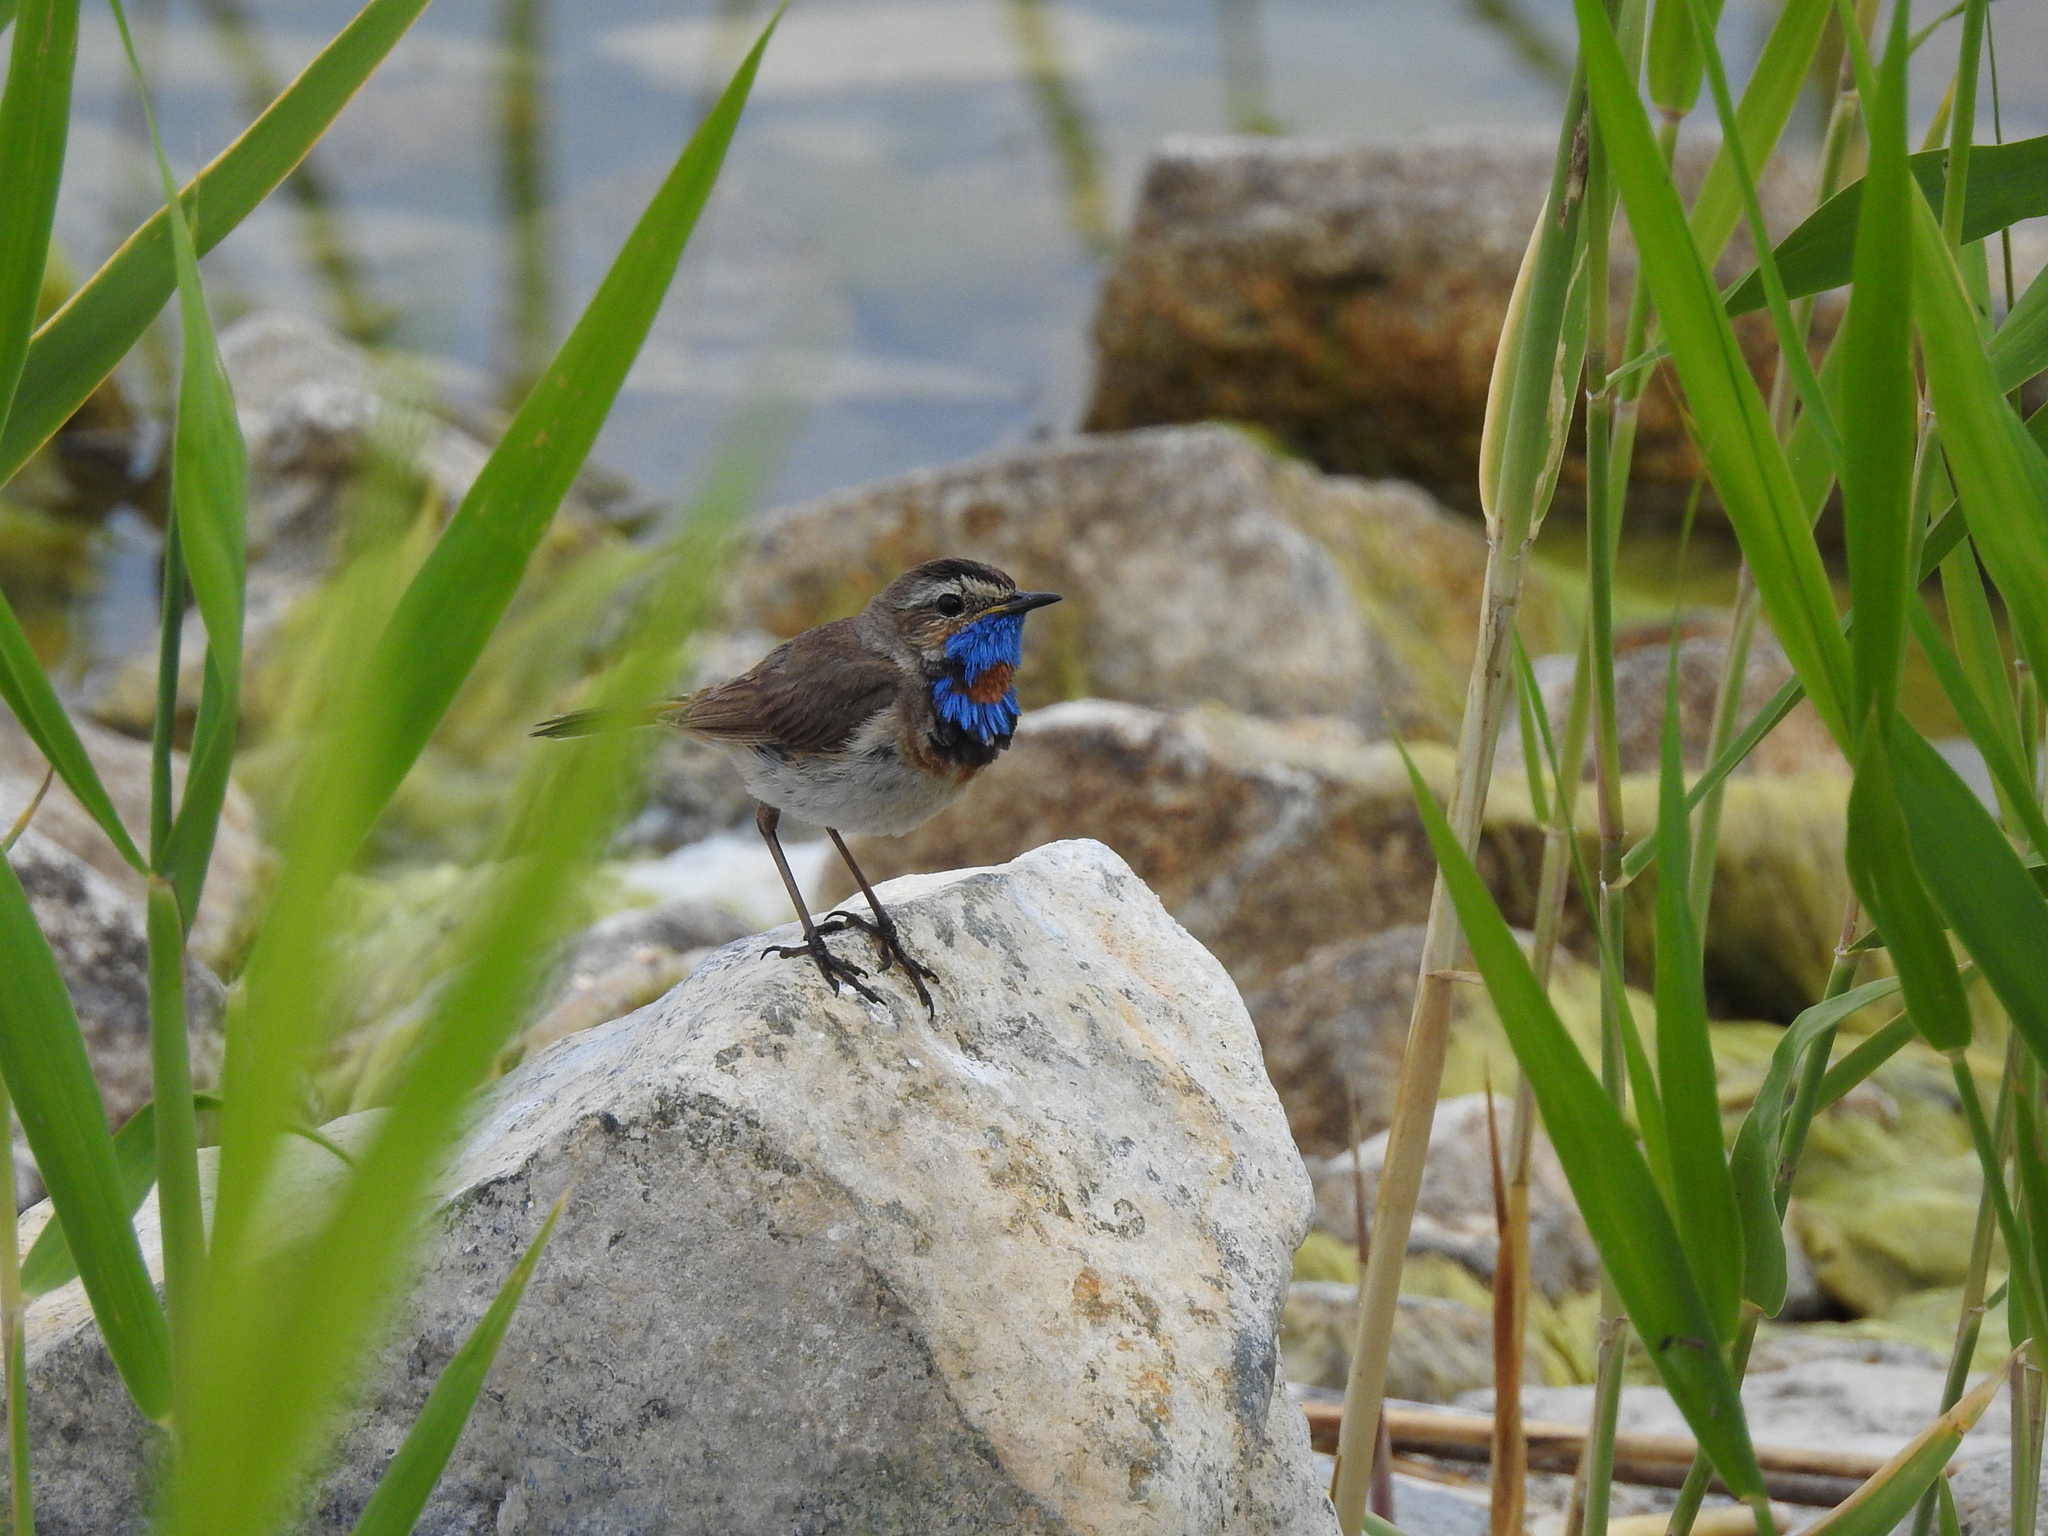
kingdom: Animalia
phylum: Chordata
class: Aves
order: Passeriformes
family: Muscicapidae
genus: Luscinia
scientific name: Luscinia svecica
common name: Bluethroat
